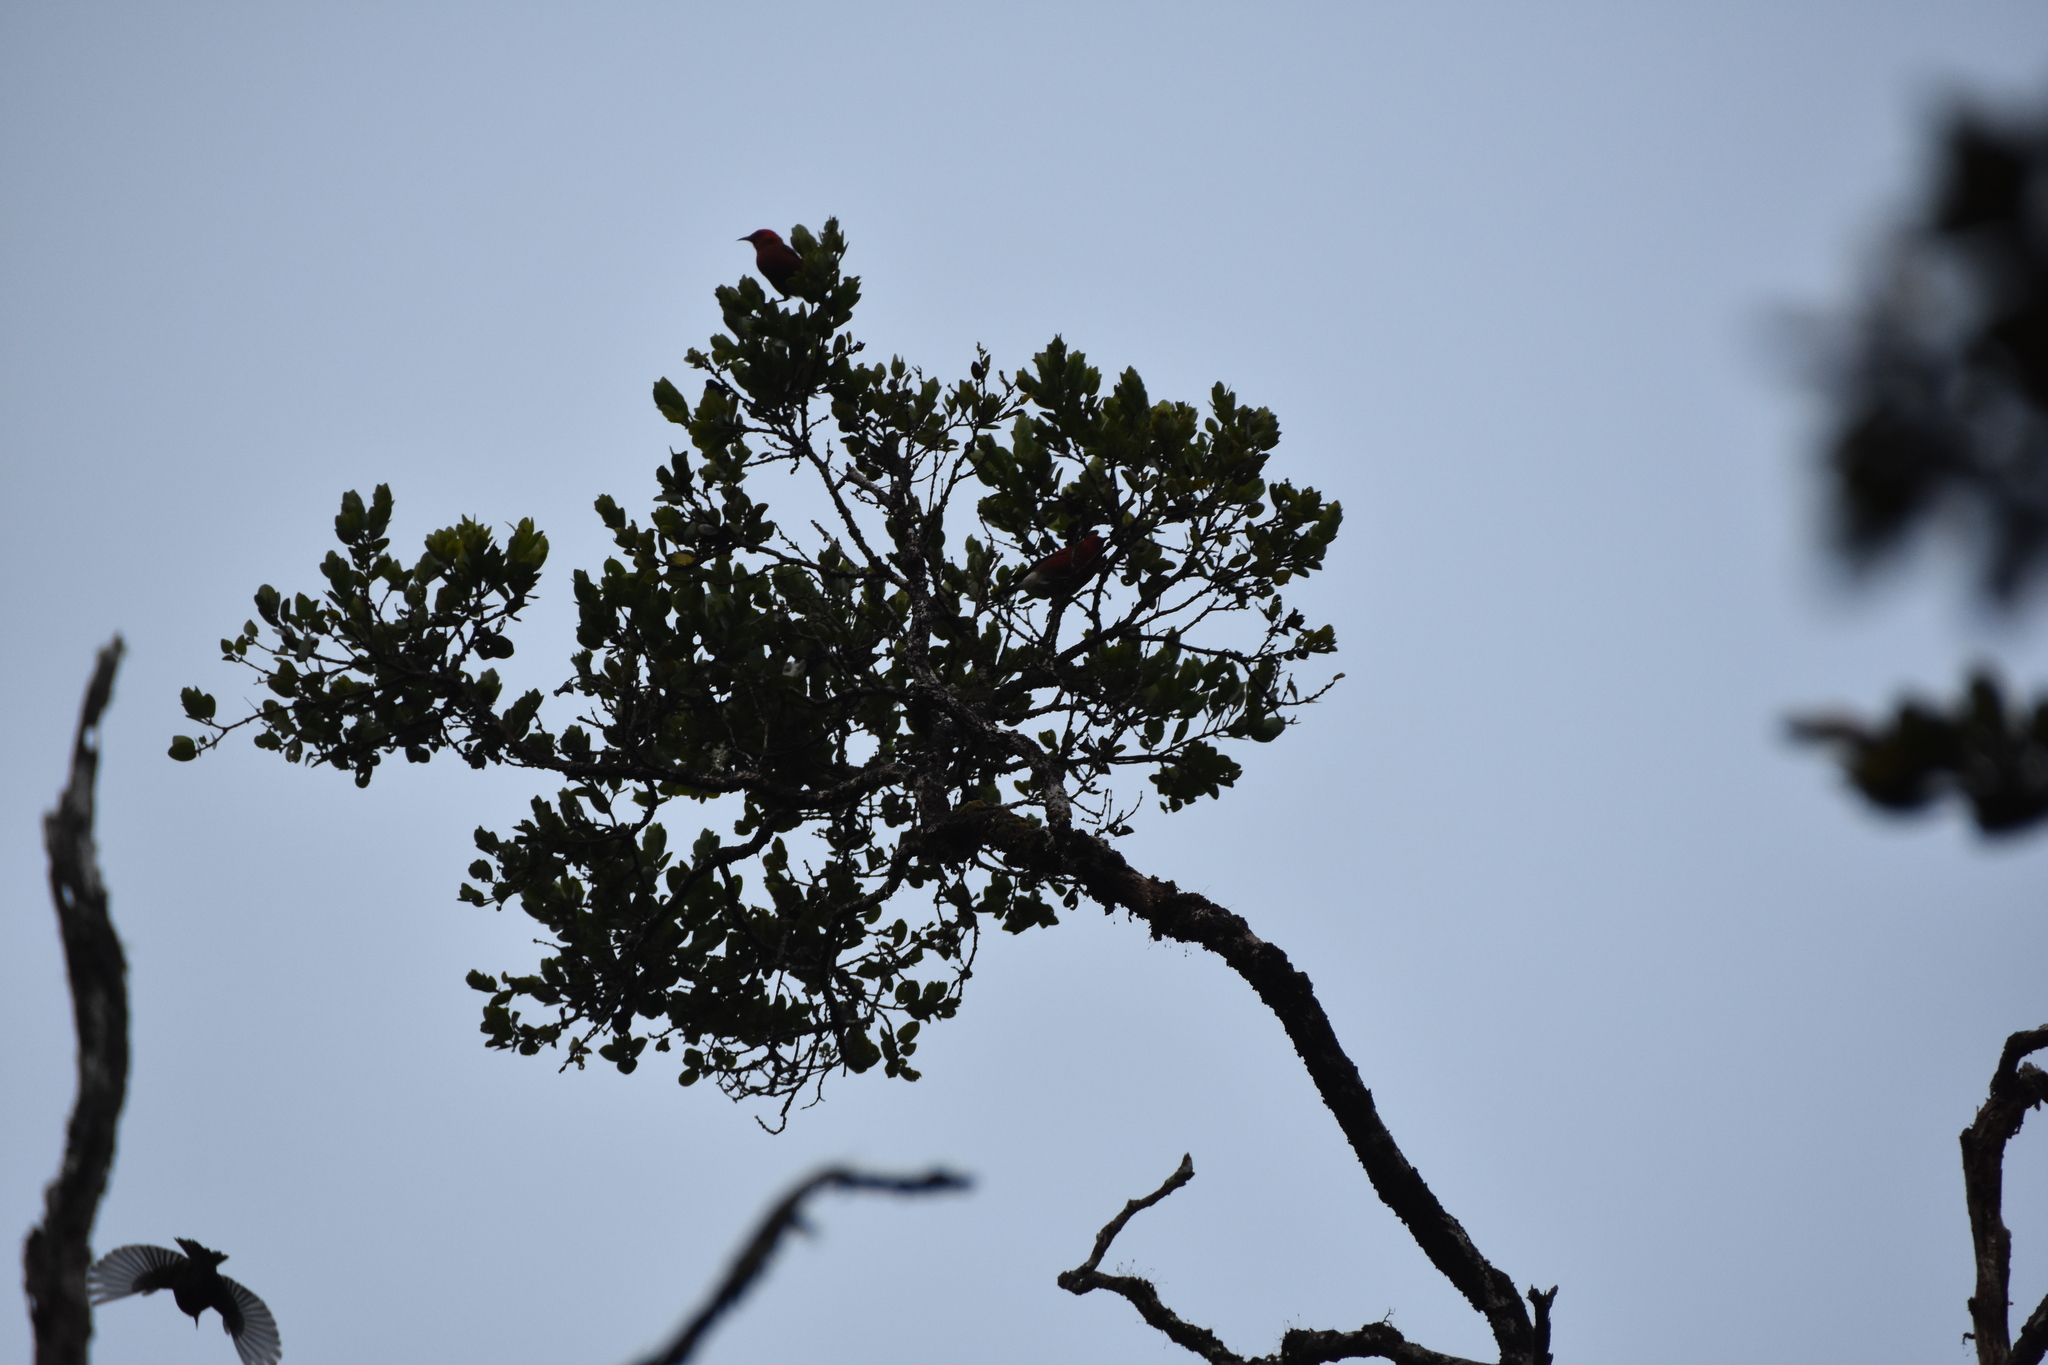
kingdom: Animalia
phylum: Chordata
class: Aves
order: Passeriformes
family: Fringillidae
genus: Himatione
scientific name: Himatione sanguinea
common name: Apapane
